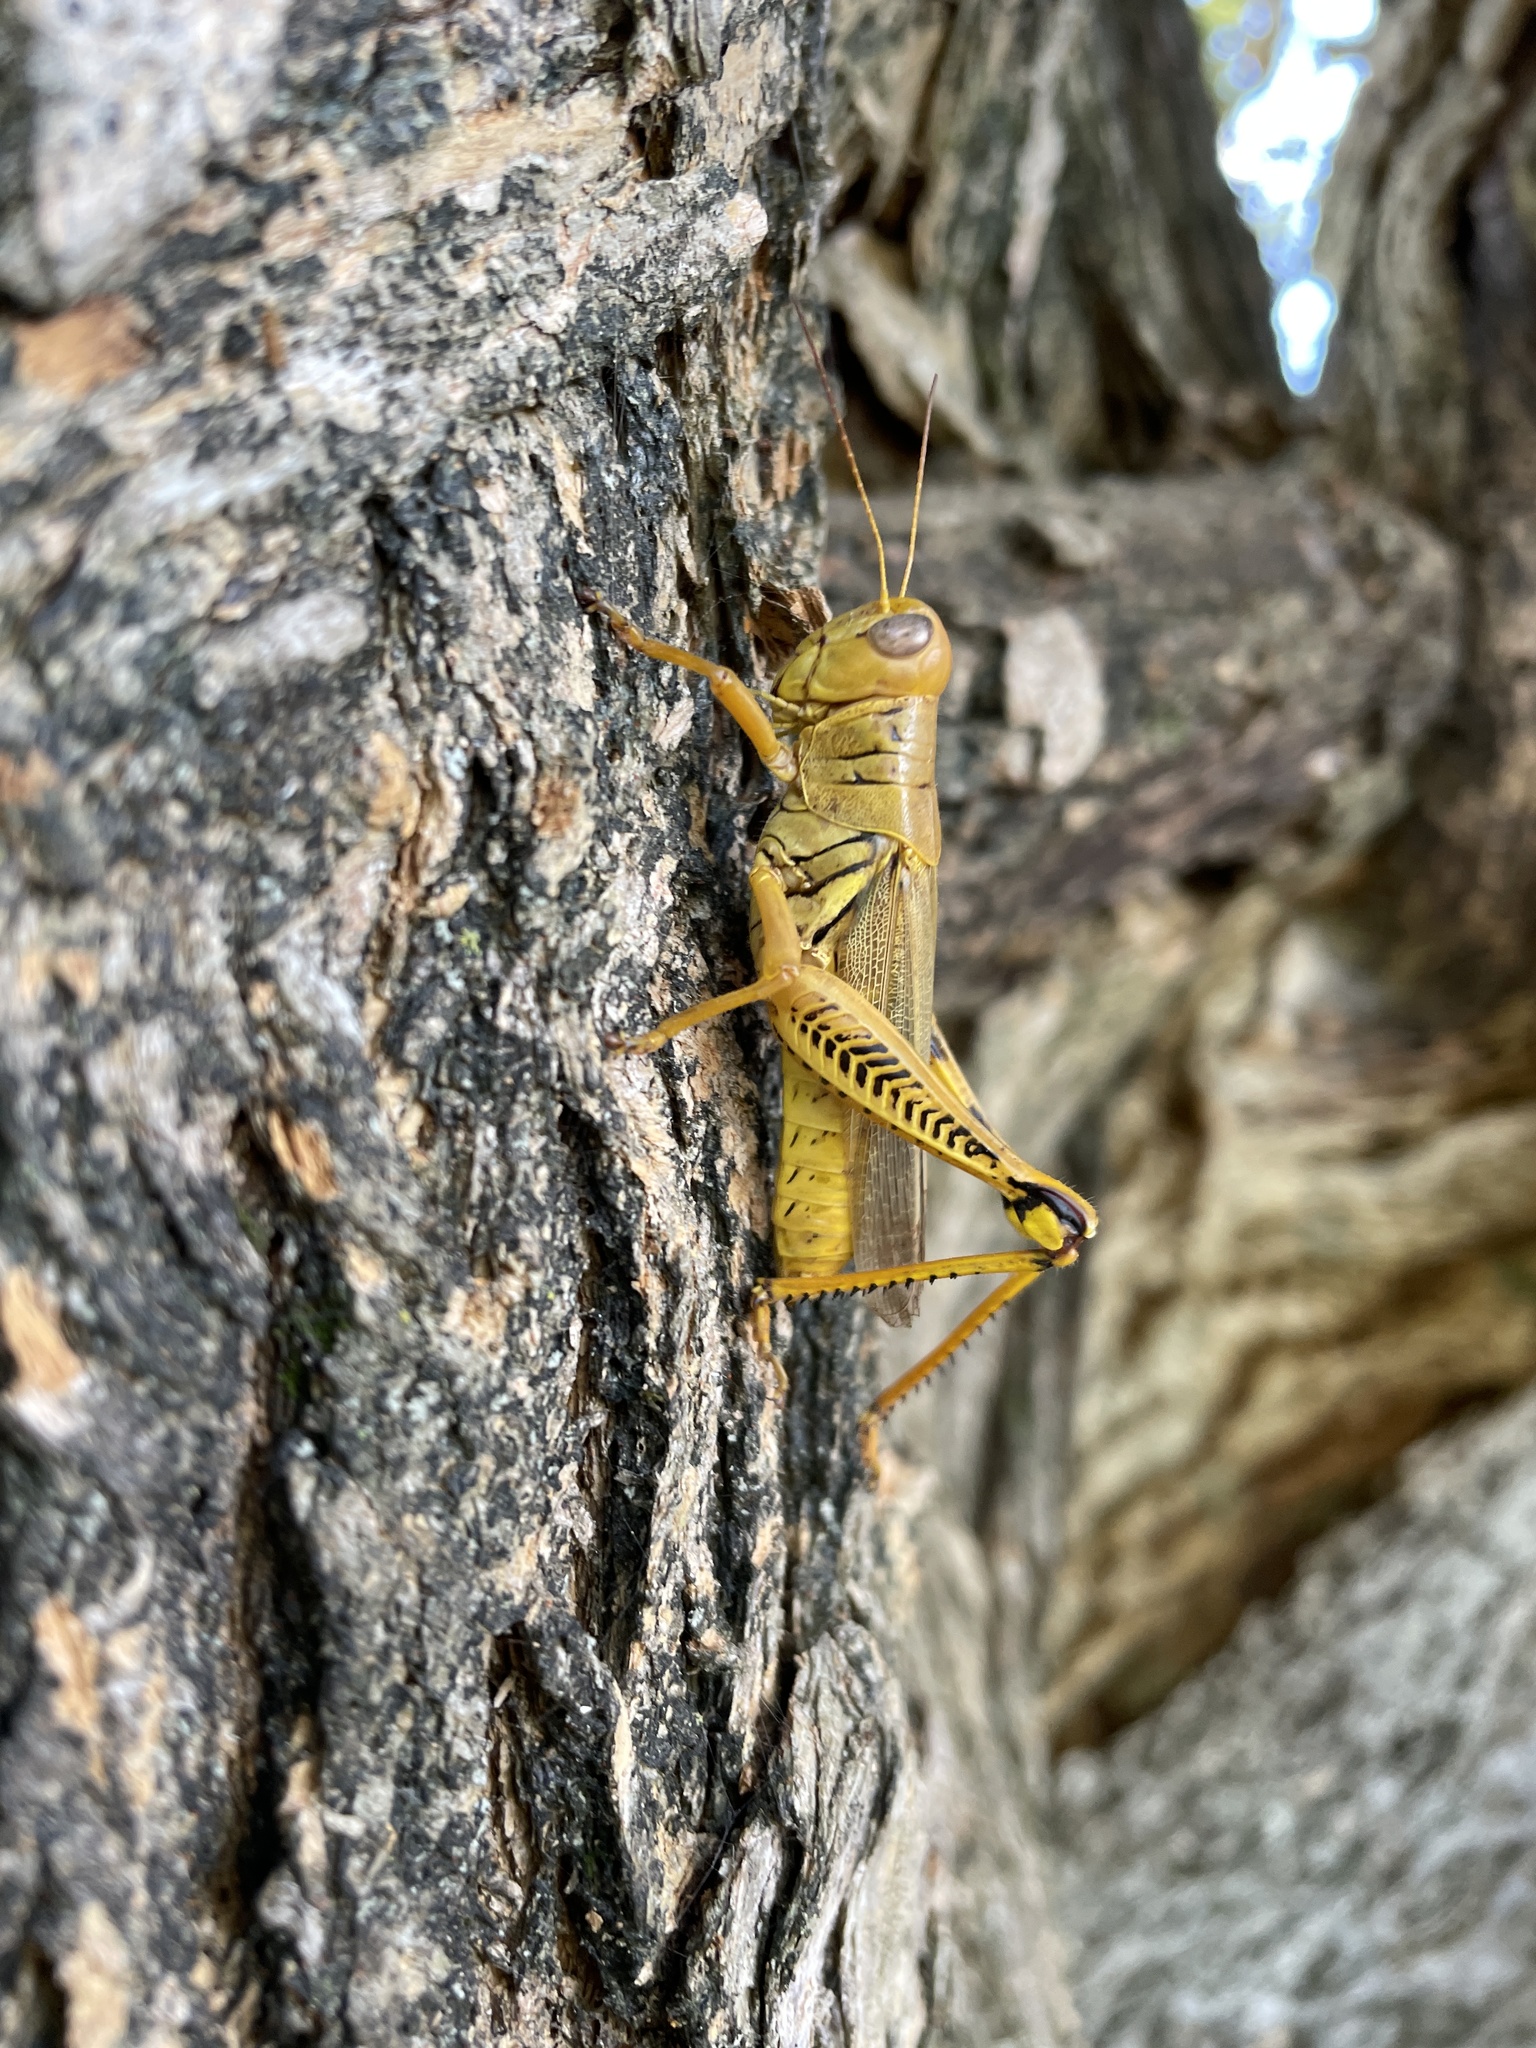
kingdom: Animalia
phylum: Arthropoda
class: Insecta
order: Orthoptera
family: Acrididae
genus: Melanoplus
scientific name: Melanoplus differentialis
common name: Differential grasshopper
